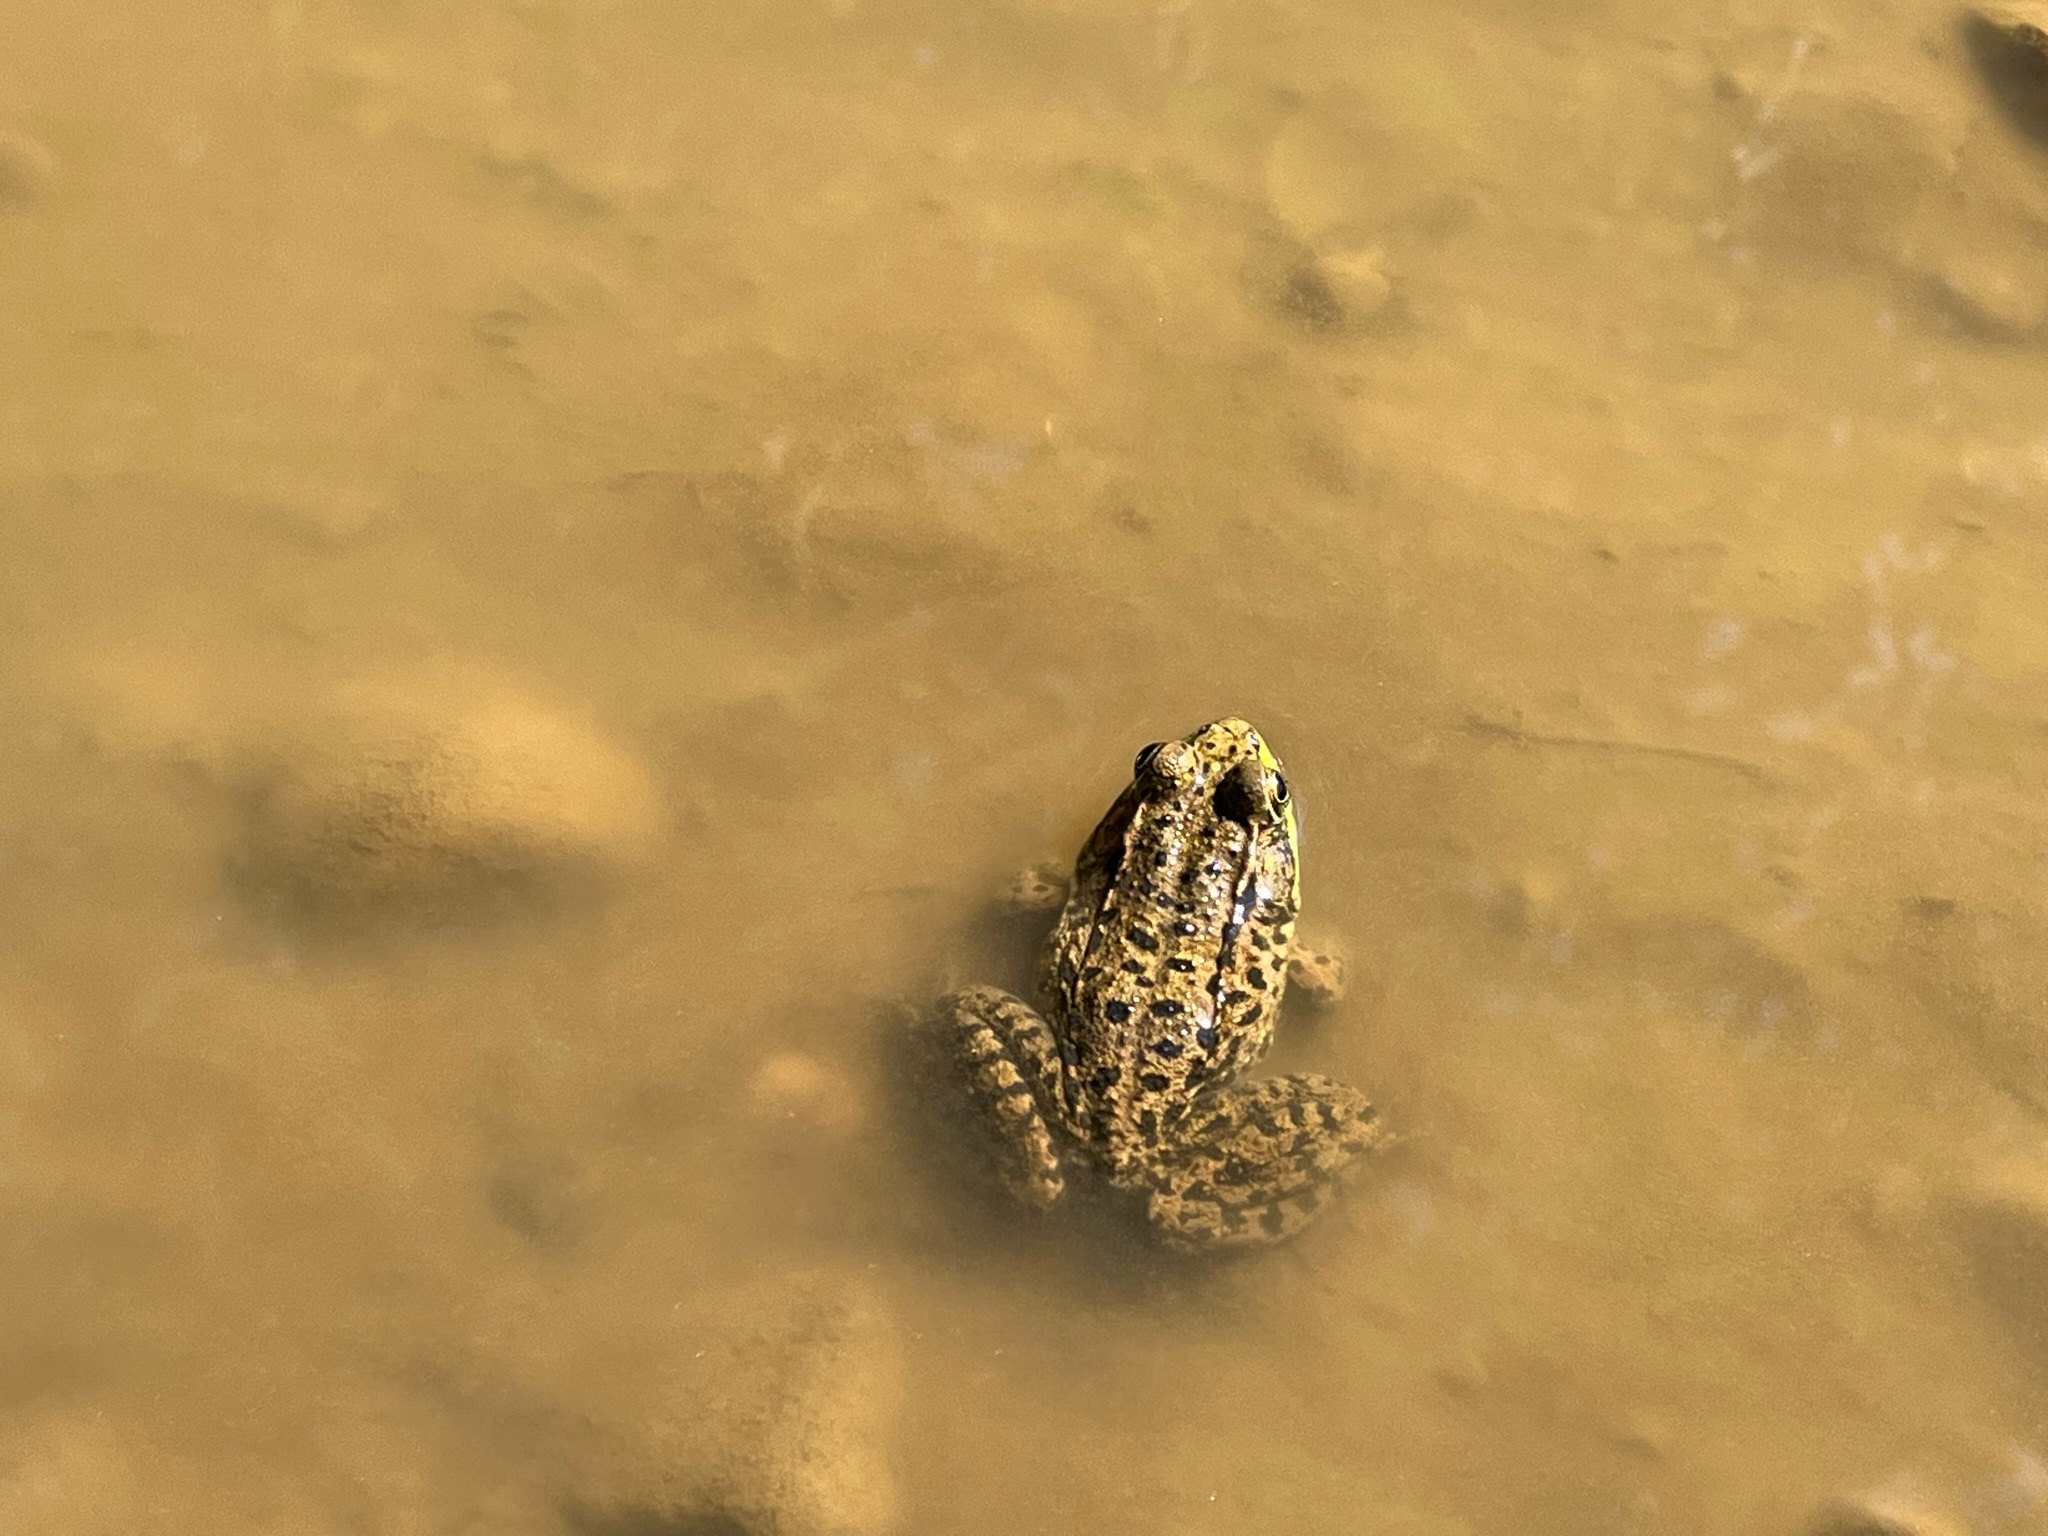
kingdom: Animalia
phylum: Chordata
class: Amphibia
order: Anura
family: Ranidae
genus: Lithobates
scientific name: Lithobates clamitans
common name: Green frog
